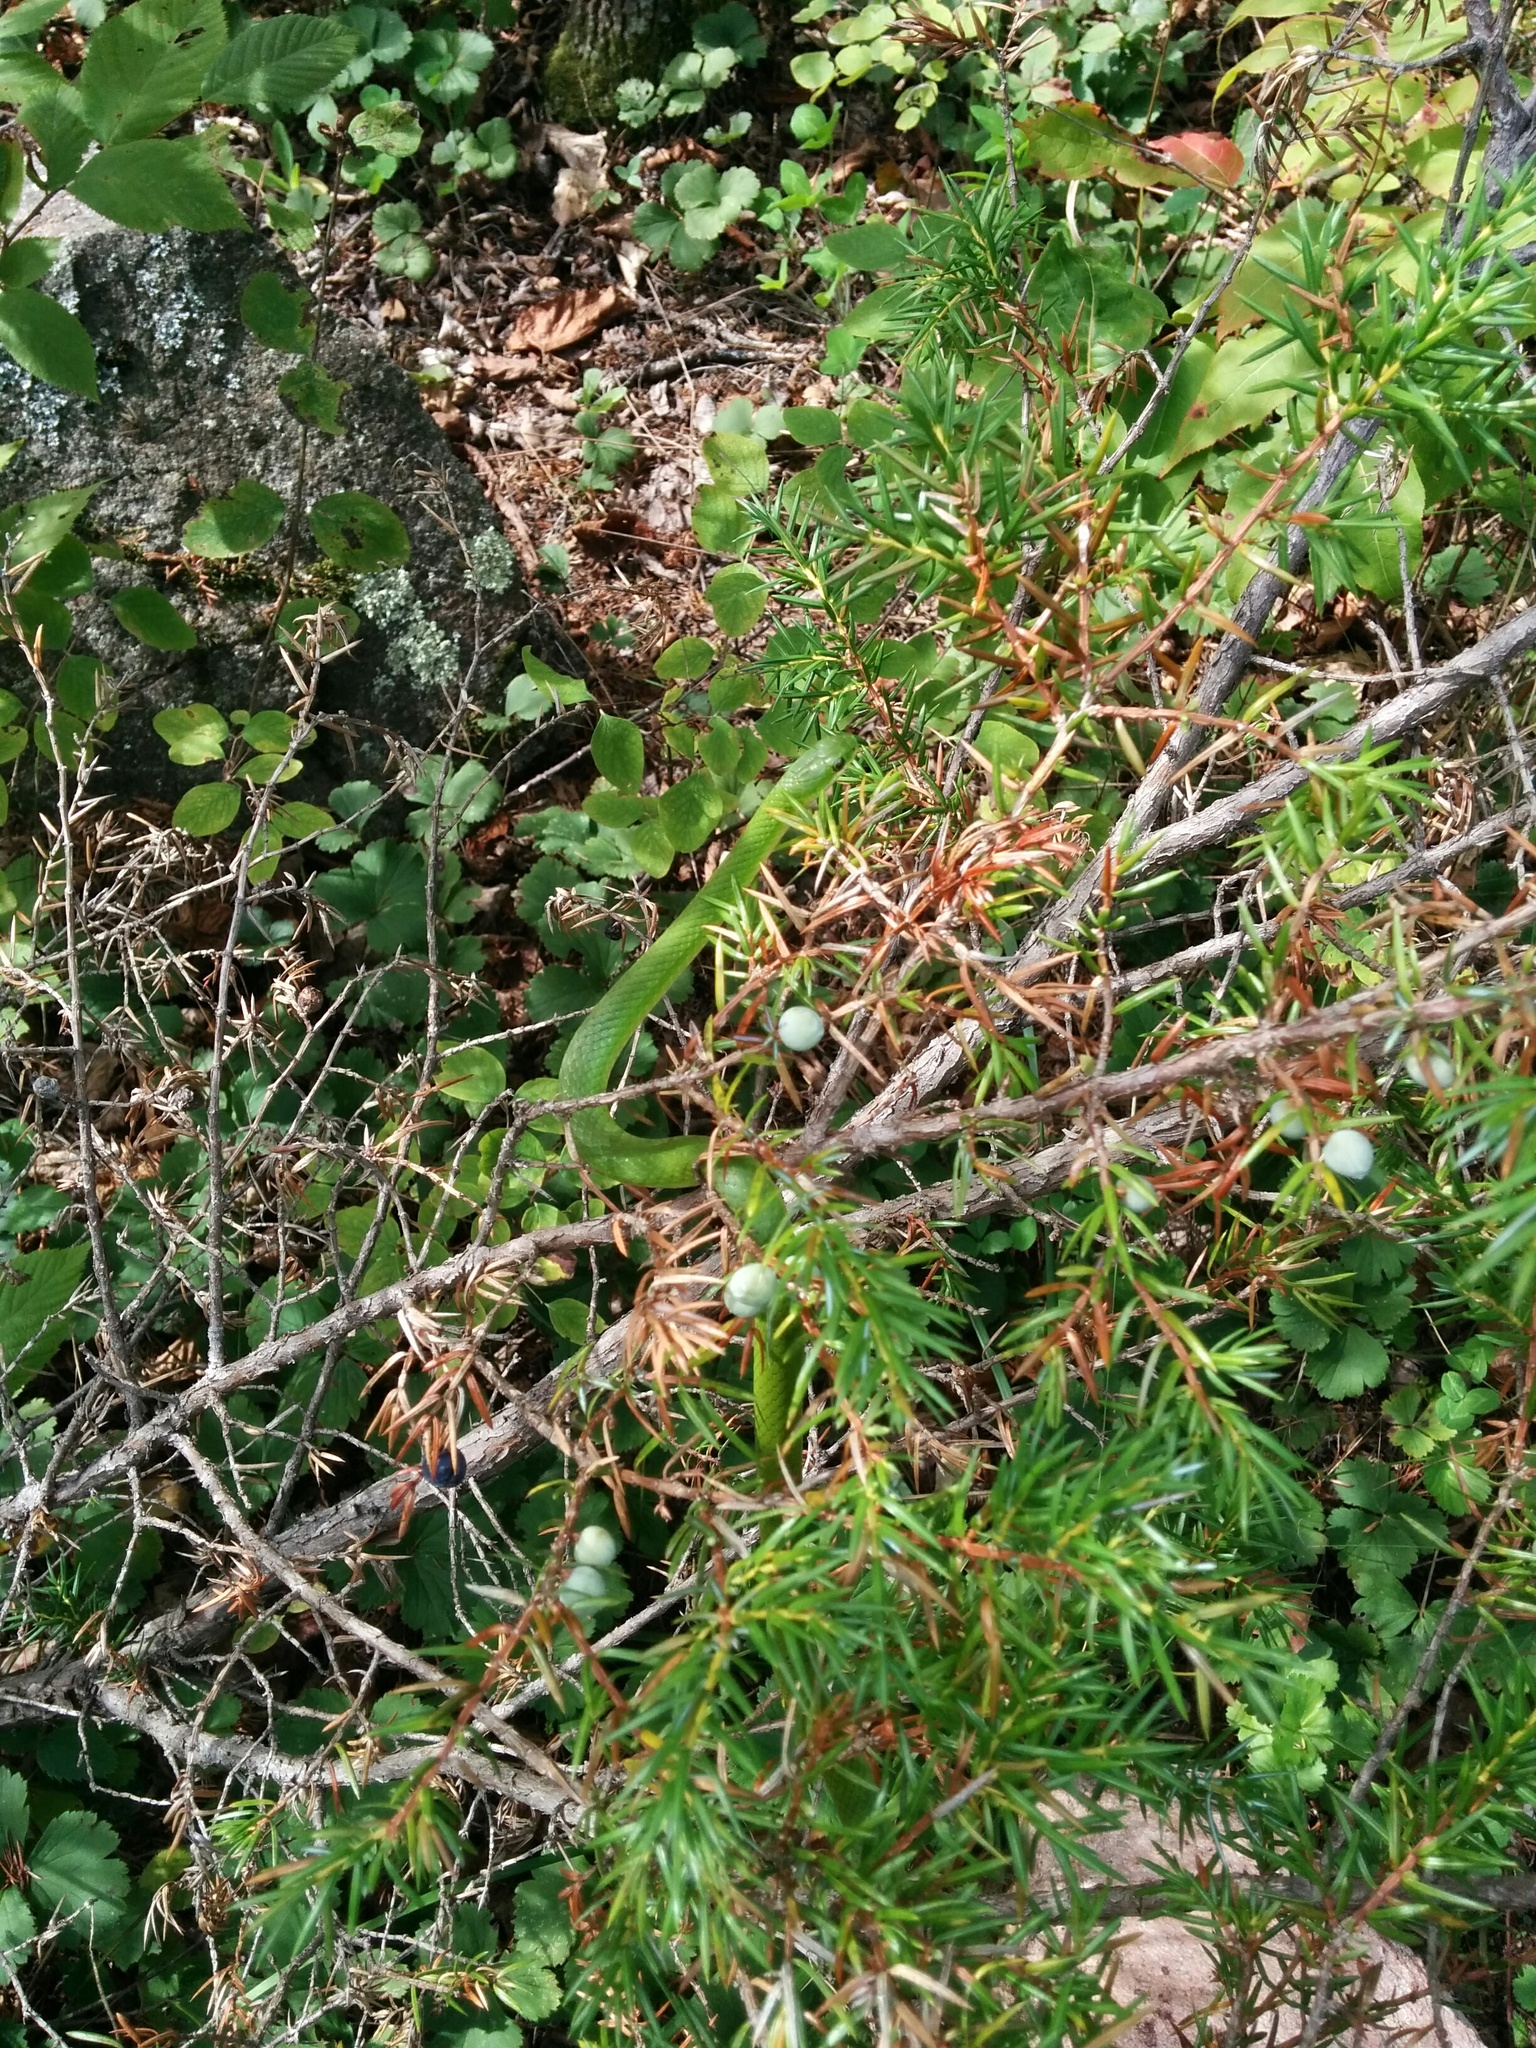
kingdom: Plantae
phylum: Tracheophyta
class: Pinopsida
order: Pinales
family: Cupressaceae
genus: Juniperus
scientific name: Juniperus communis
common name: Common juniper
